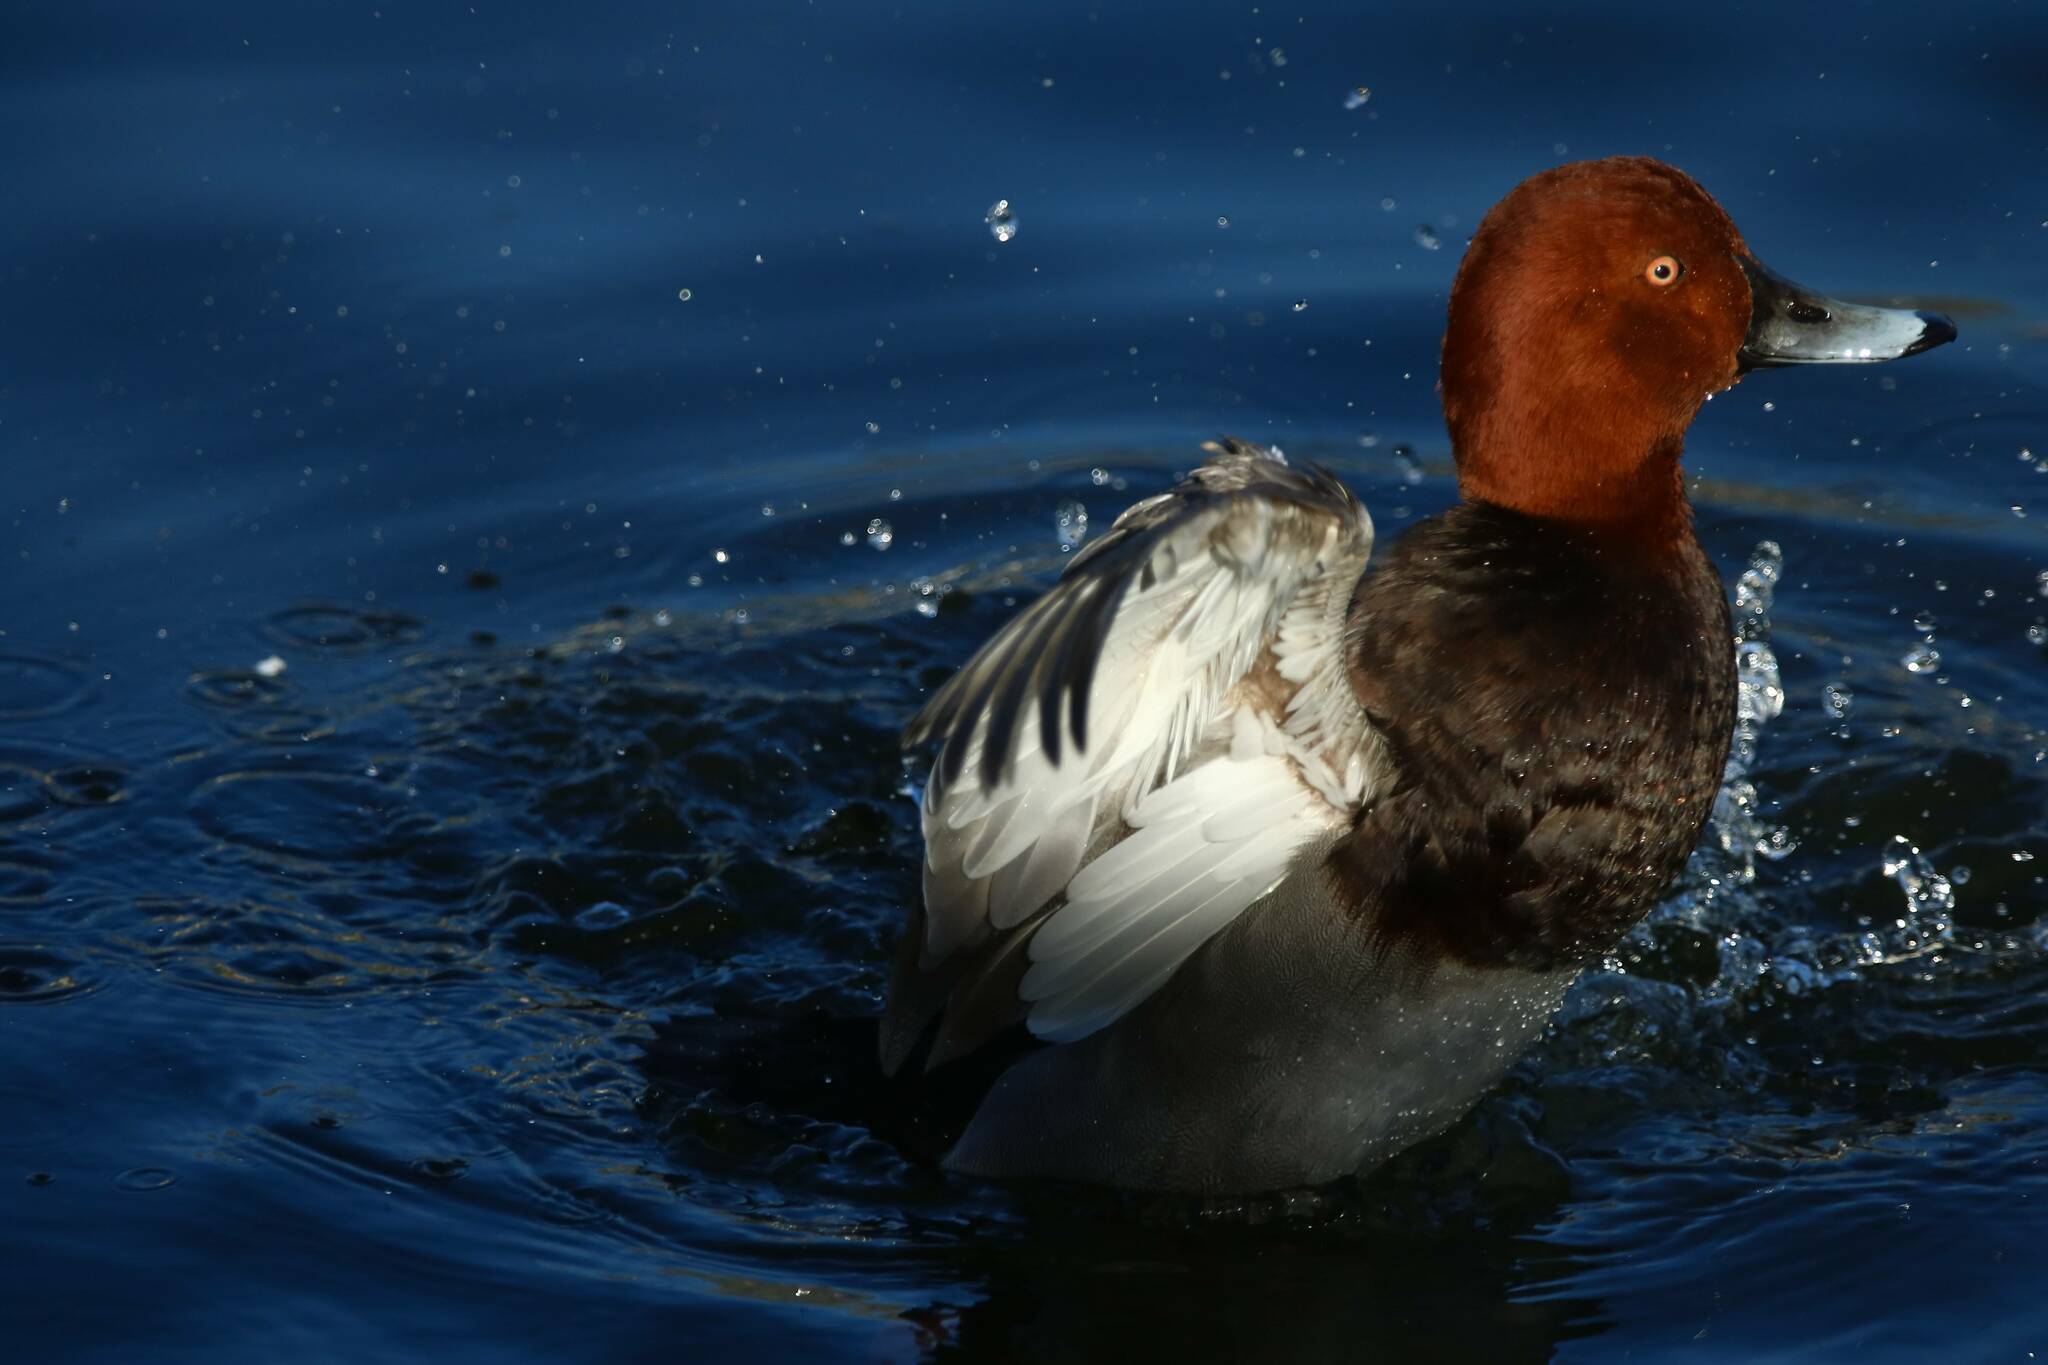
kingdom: Animalia
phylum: Chordata
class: Aves
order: Anseriformes
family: Anatidae
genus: Aythya
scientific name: Aythya ferina
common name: Common pochard
